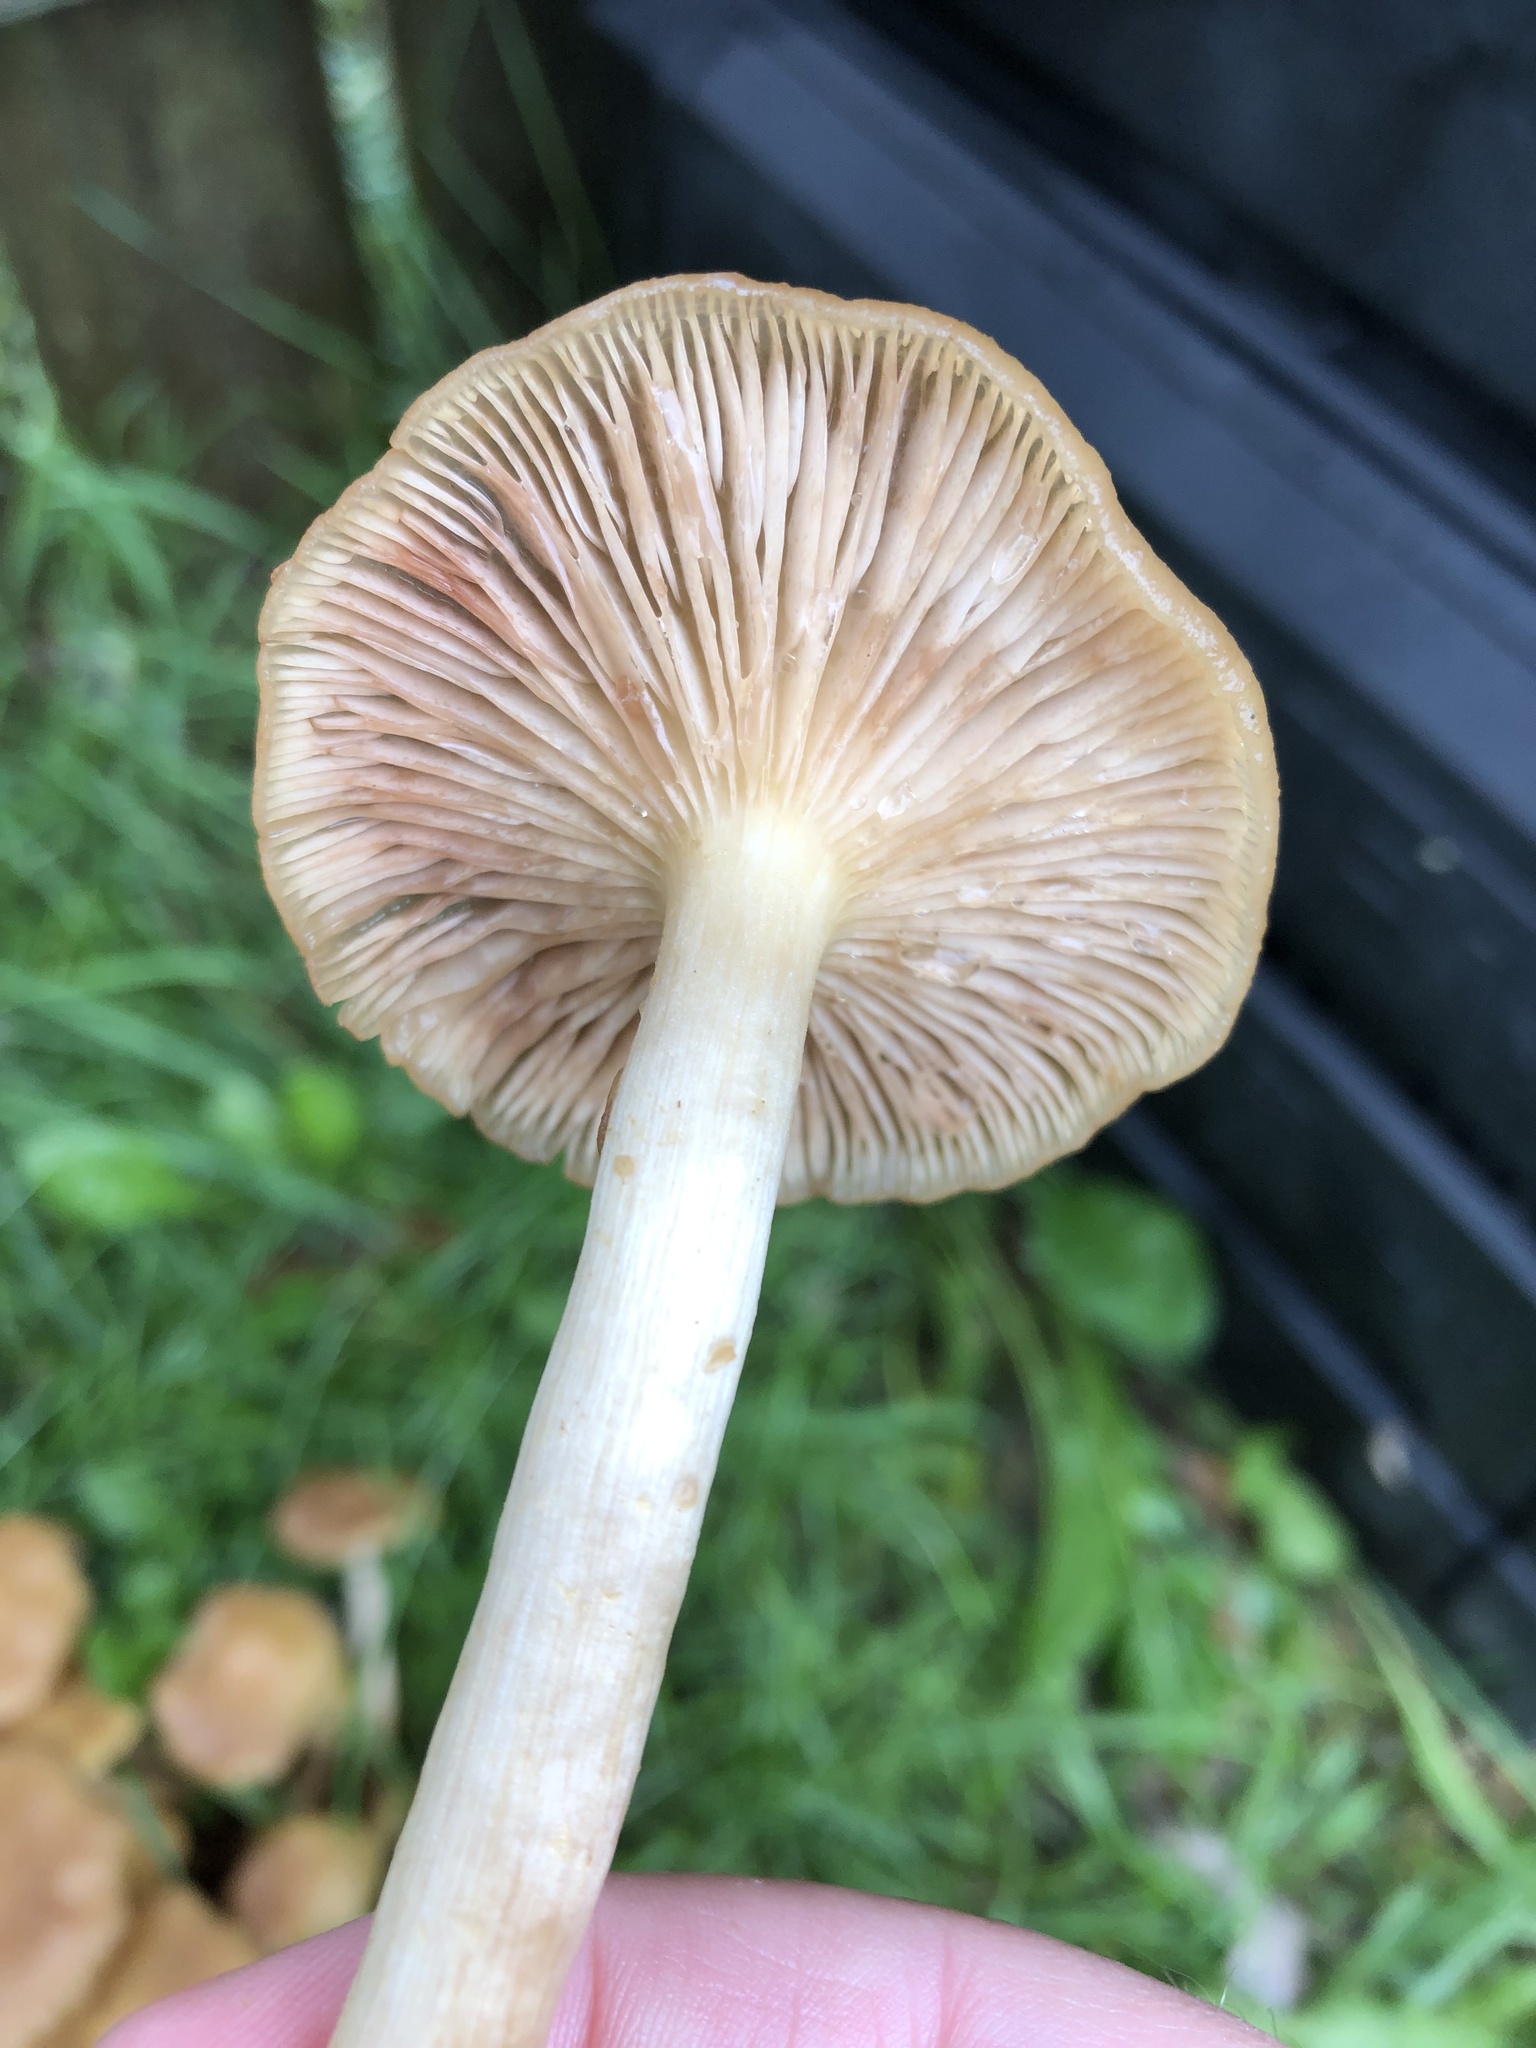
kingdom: Fungi
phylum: Basidiomycota
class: Agaricomycetes
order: Agaricales
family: Physalacriaceae
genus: Desarmillaria
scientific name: Desarmillaria caespitosa
